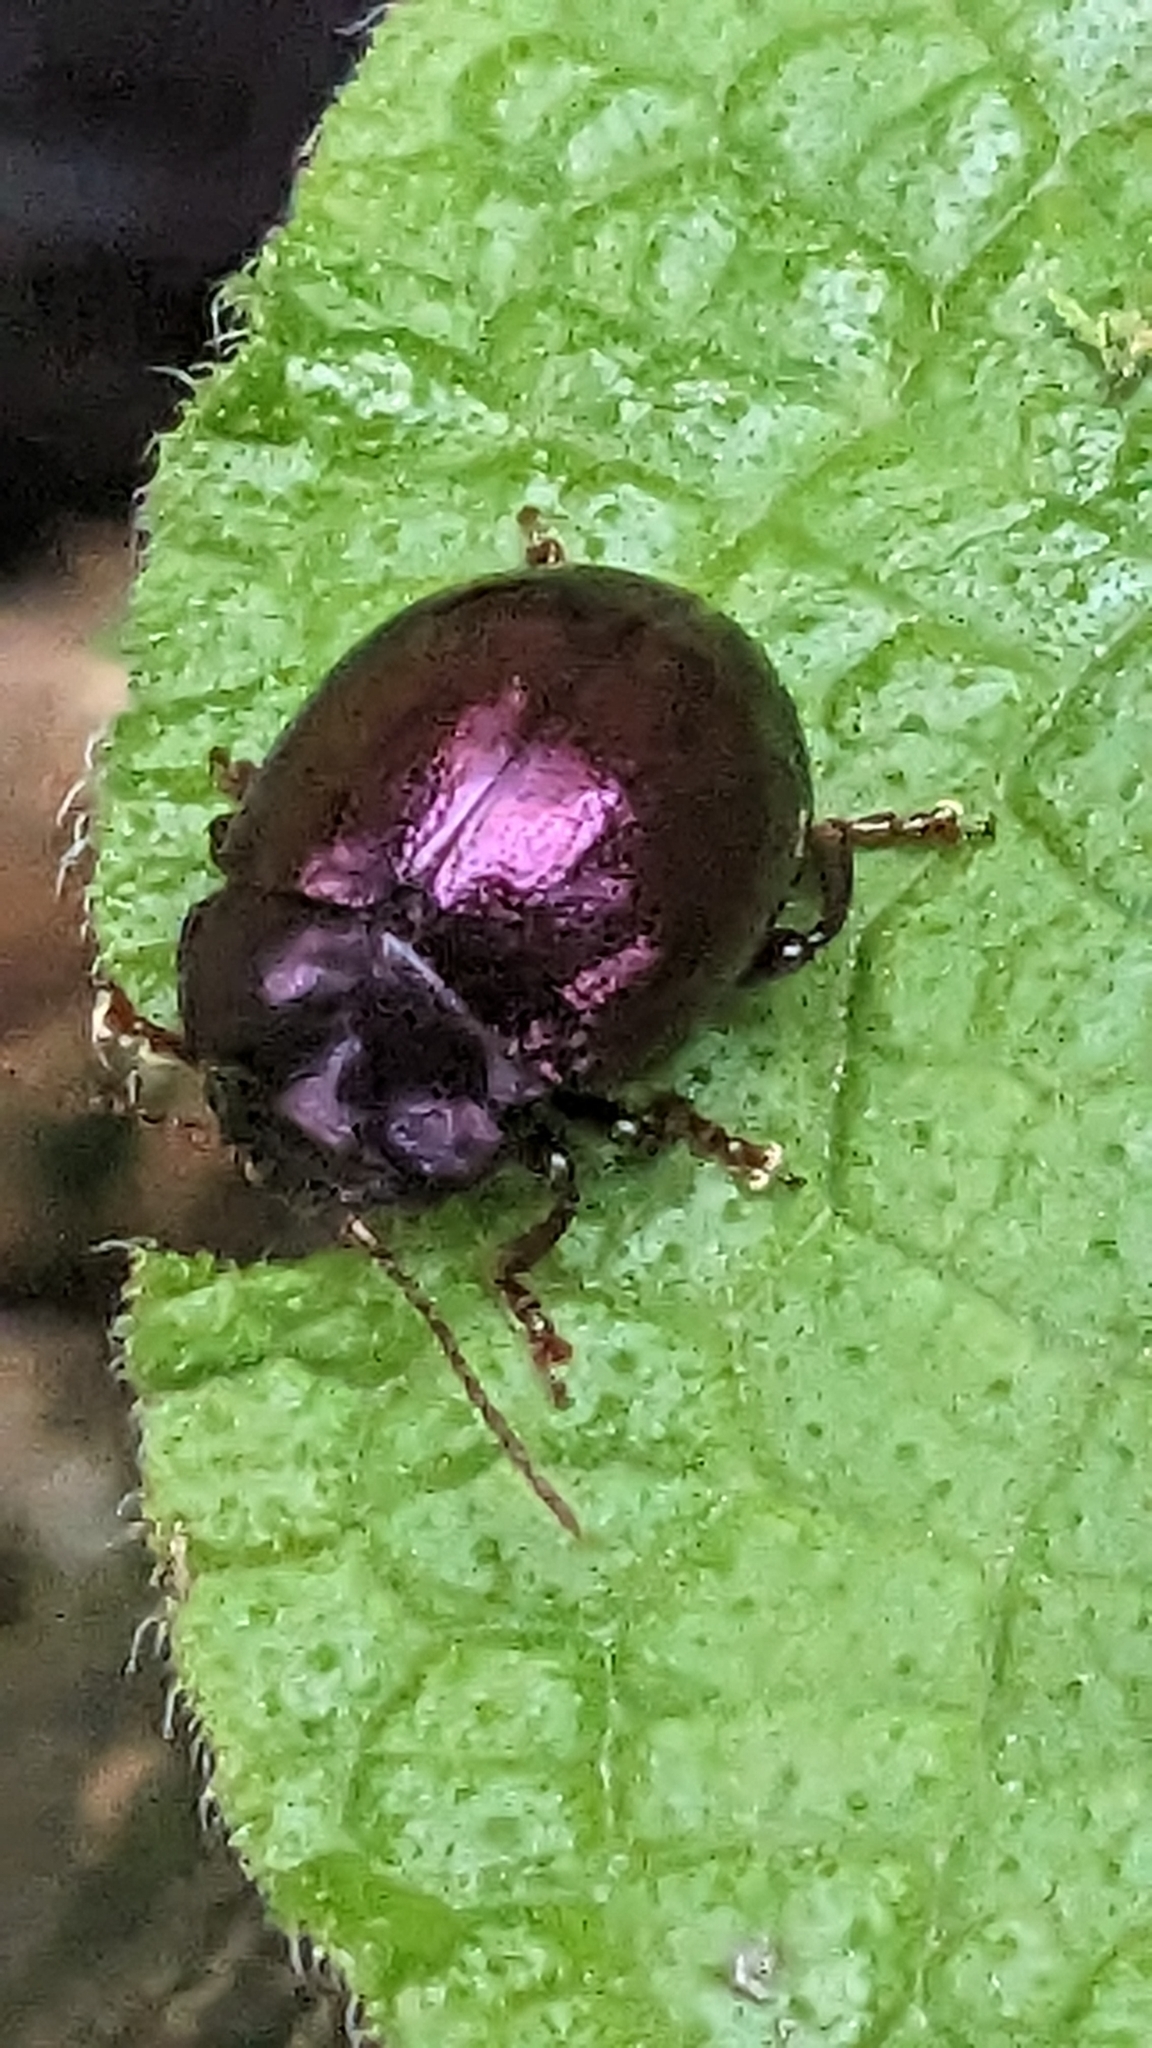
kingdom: Animalia
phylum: Arthropoda
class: Insecta
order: Coleoptera
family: Chrysomelidae
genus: Chrysolina
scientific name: Chrysolina sturmi
